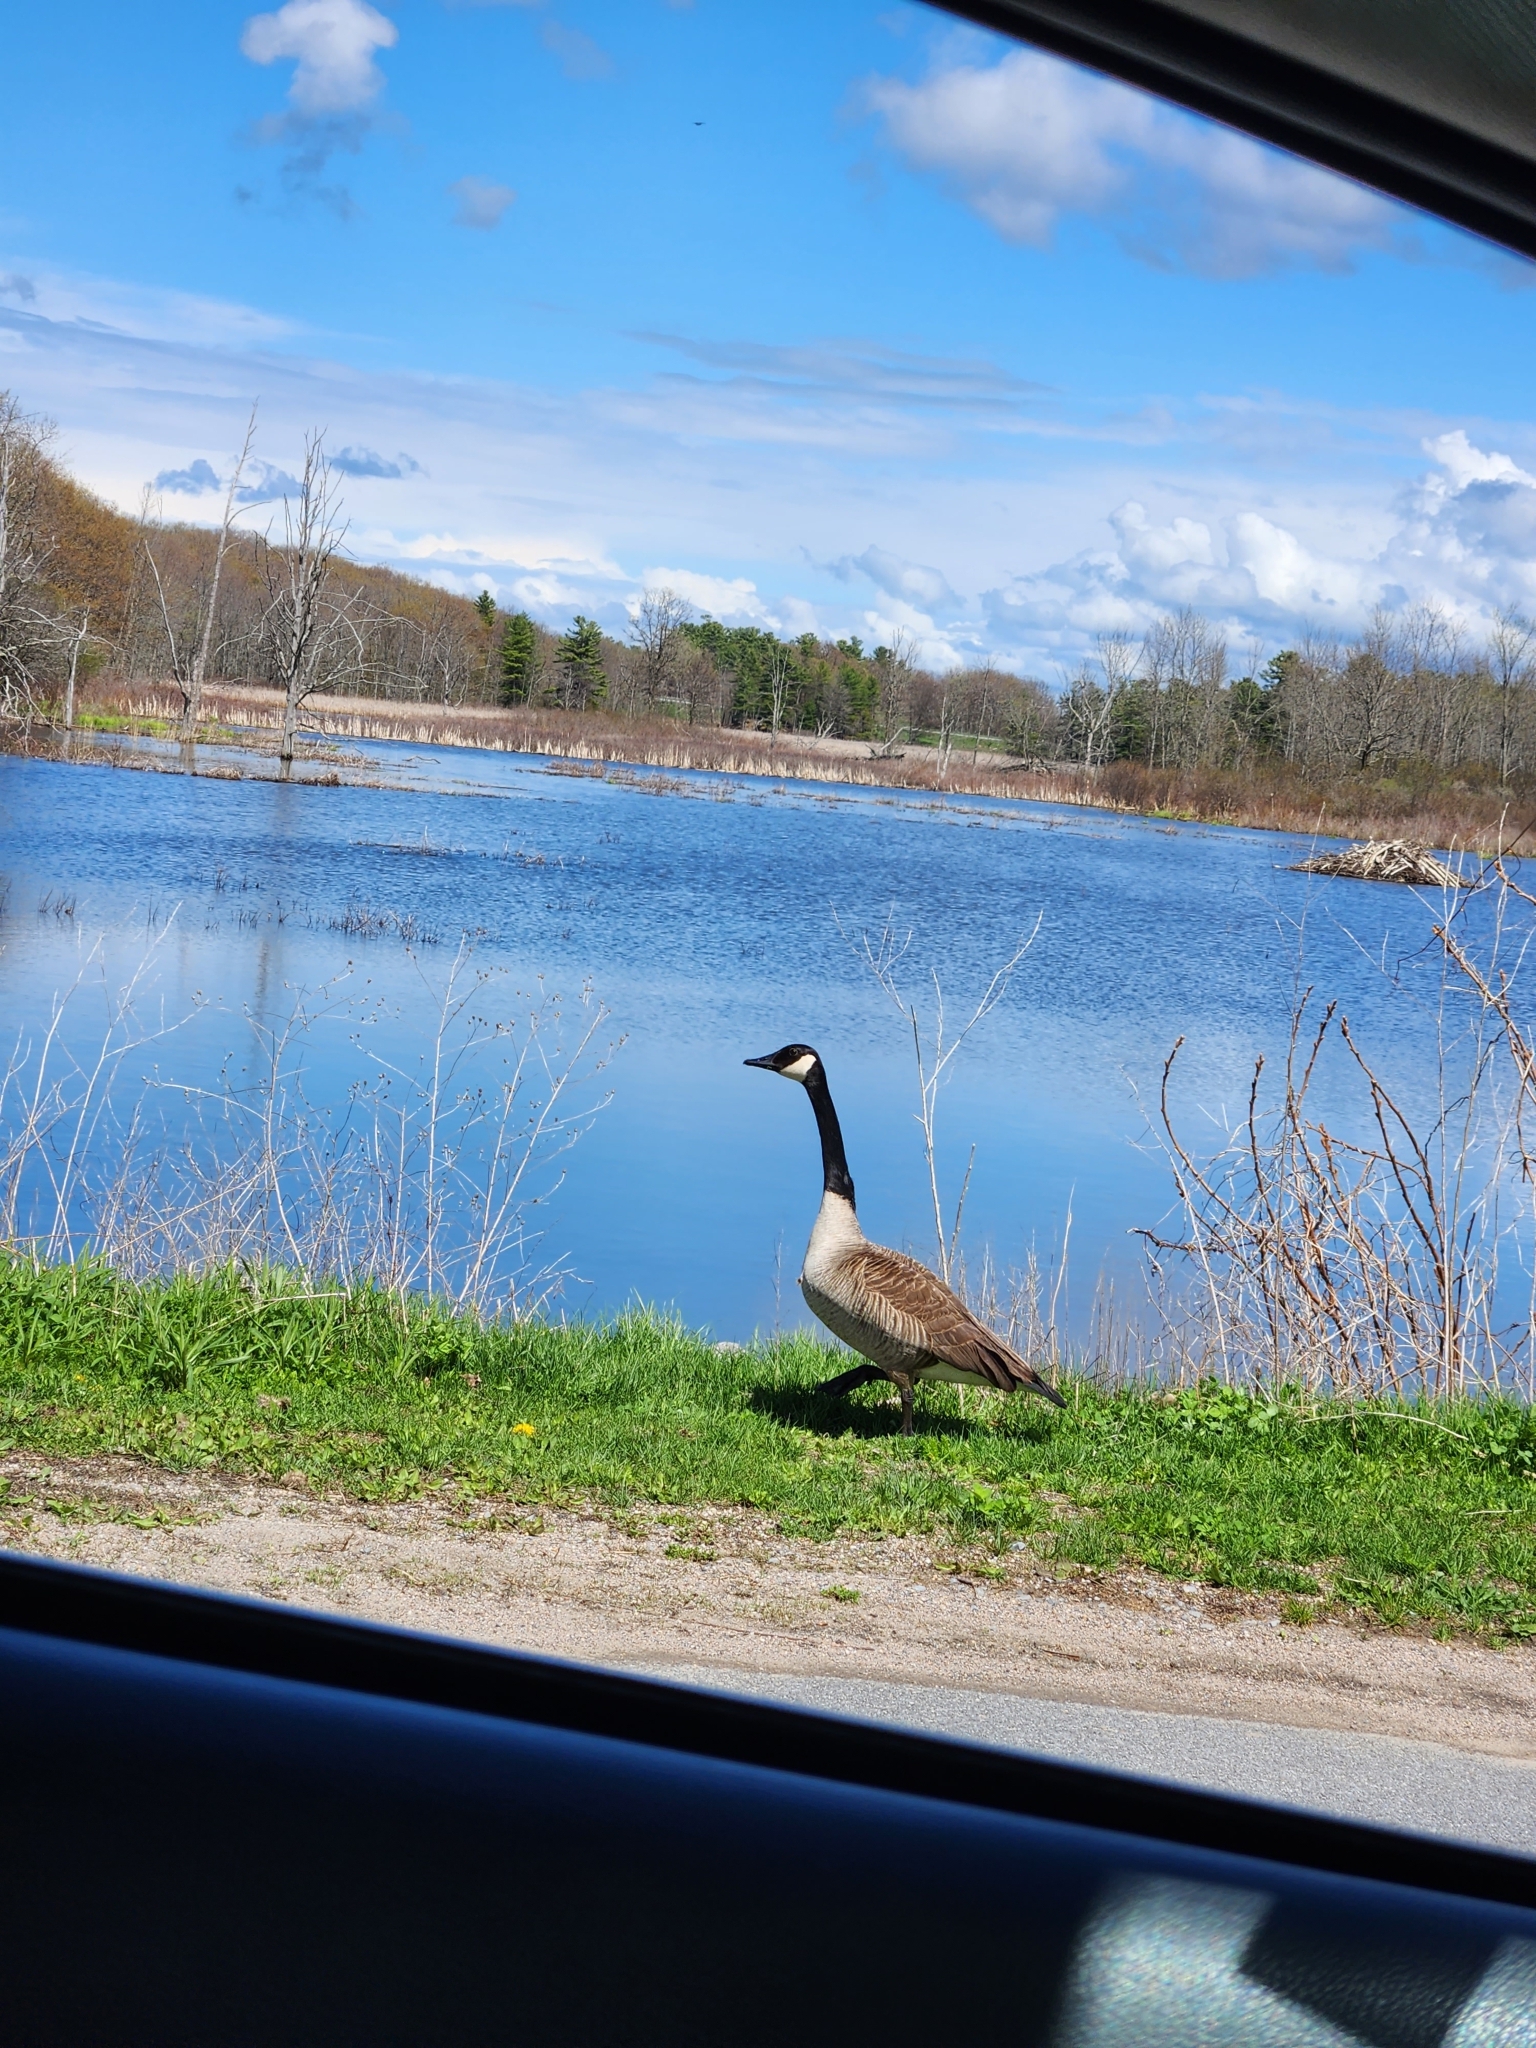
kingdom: Animalia
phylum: Chordata
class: Aves
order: Anseriformes
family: Anatidae
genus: Branta
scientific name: Branta canadensis
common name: Canada goose
